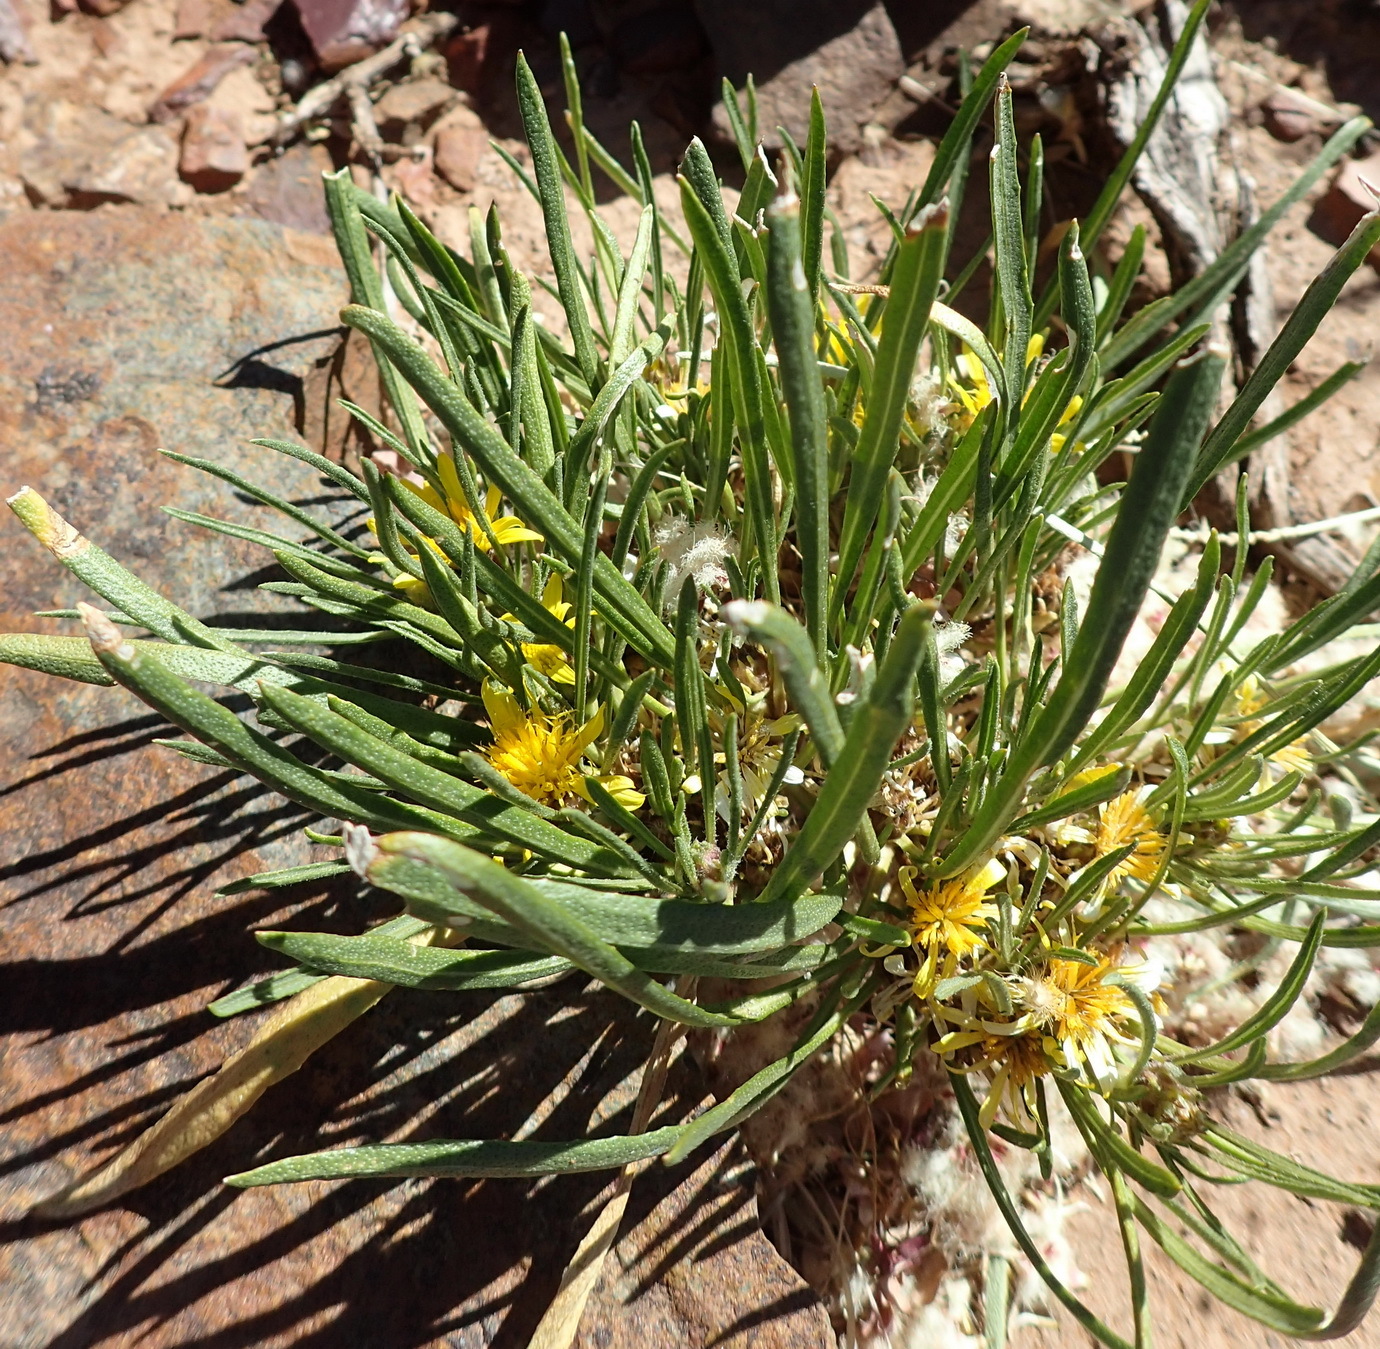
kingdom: Plantae
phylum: Tracheophyta
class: Magnoliopsida
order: Asterales
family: Asteraceae
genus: Geigeria
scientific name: Geigeria burkei
